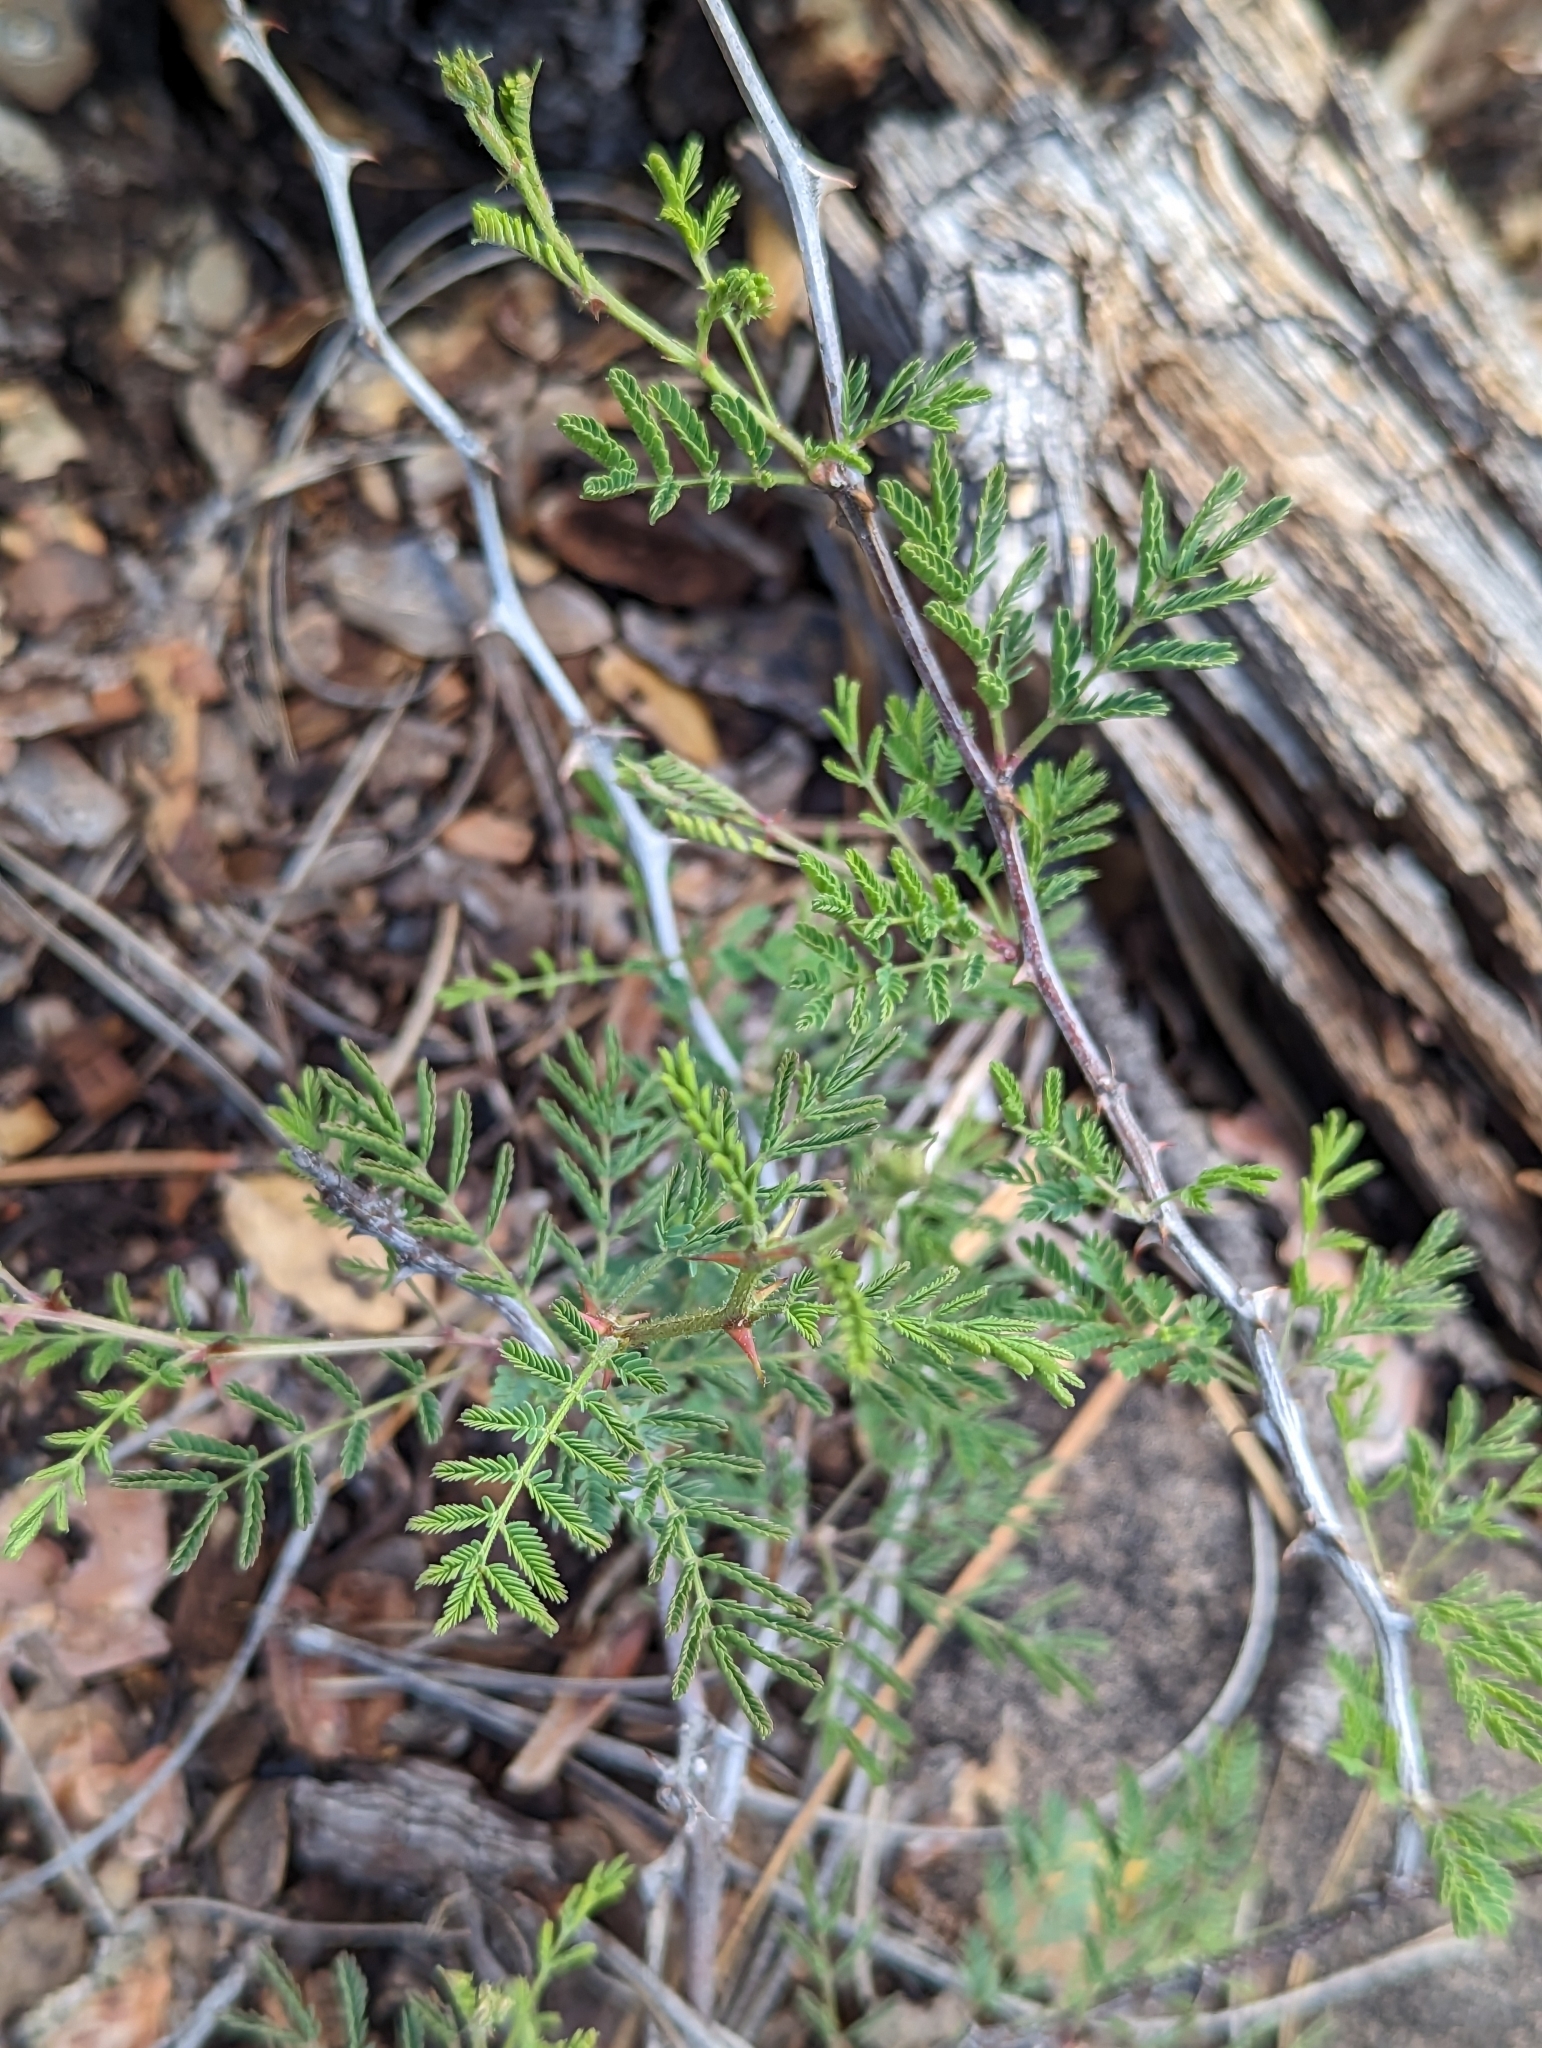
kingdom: Plantae
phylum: Tracheophyta
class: Magnoliopsida
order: Fabales
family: Fabaceae
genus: Mimosa
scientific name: Mimosa aculeaticarpa
